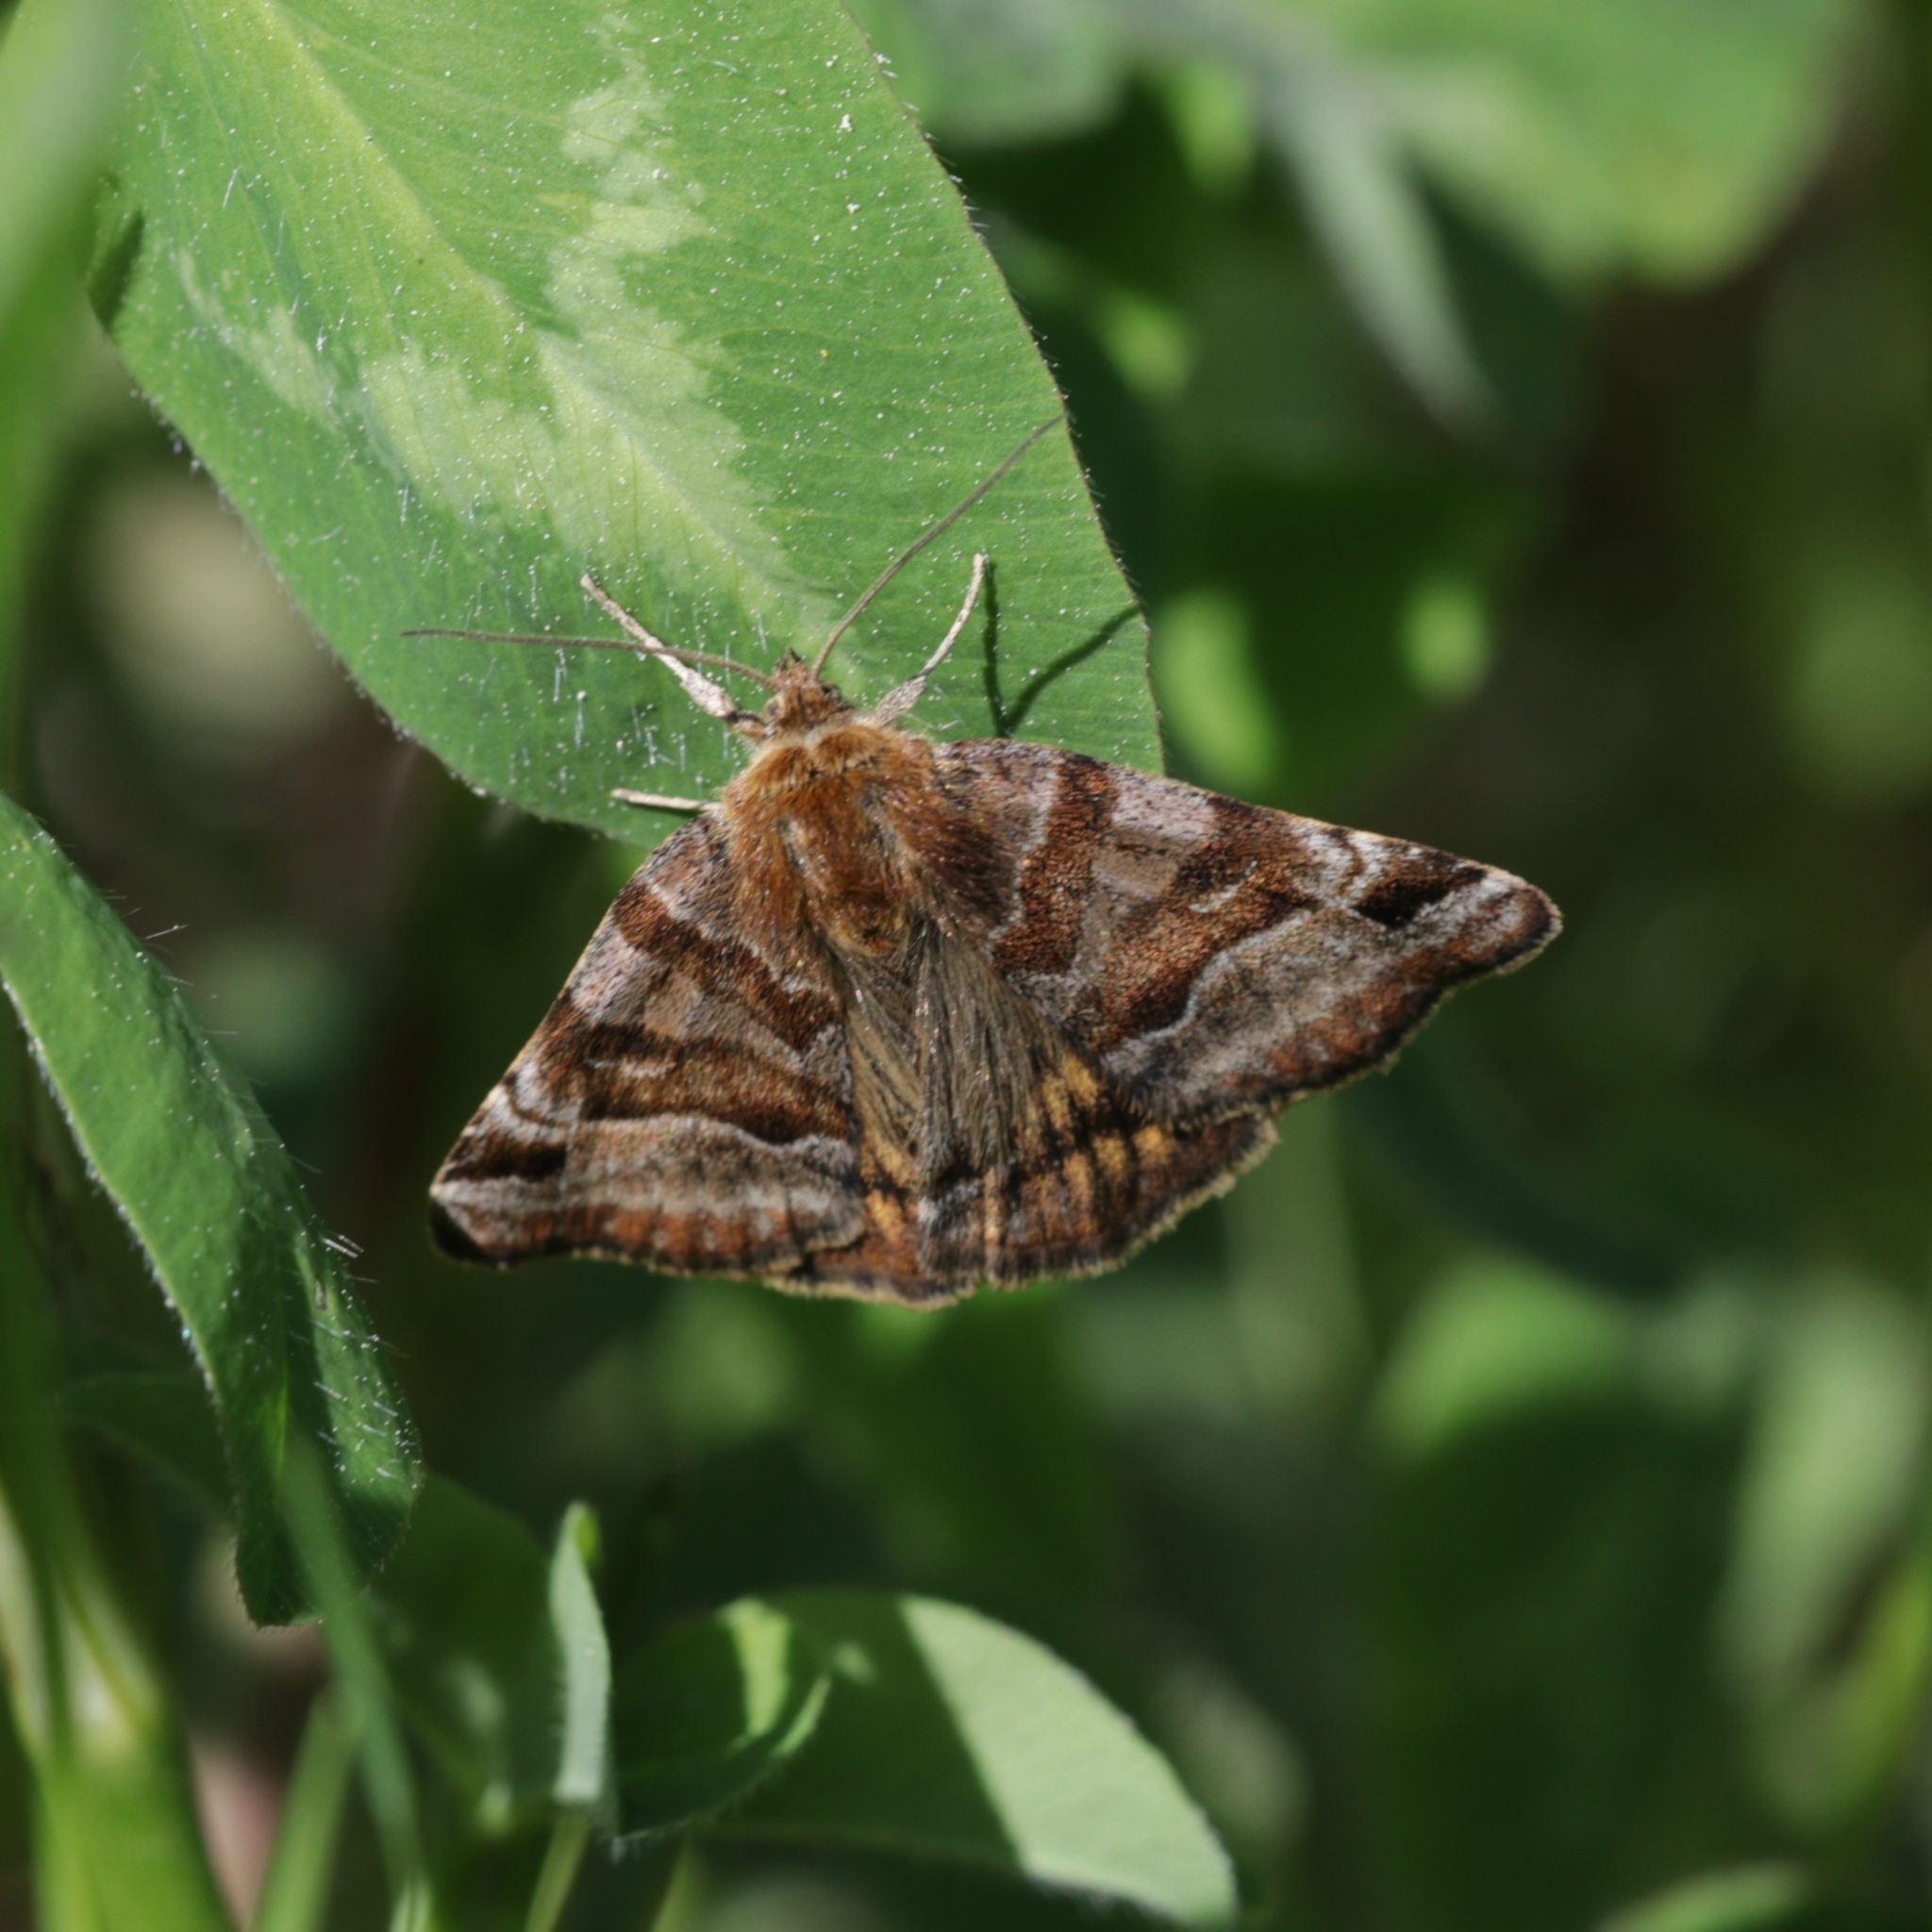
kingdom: Animalia
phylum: Arthropoda
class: Insecta
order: Lepidoptera
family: Erebidae
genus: Euclidia
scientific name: Euclidia glyphica
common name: Burnet companion
